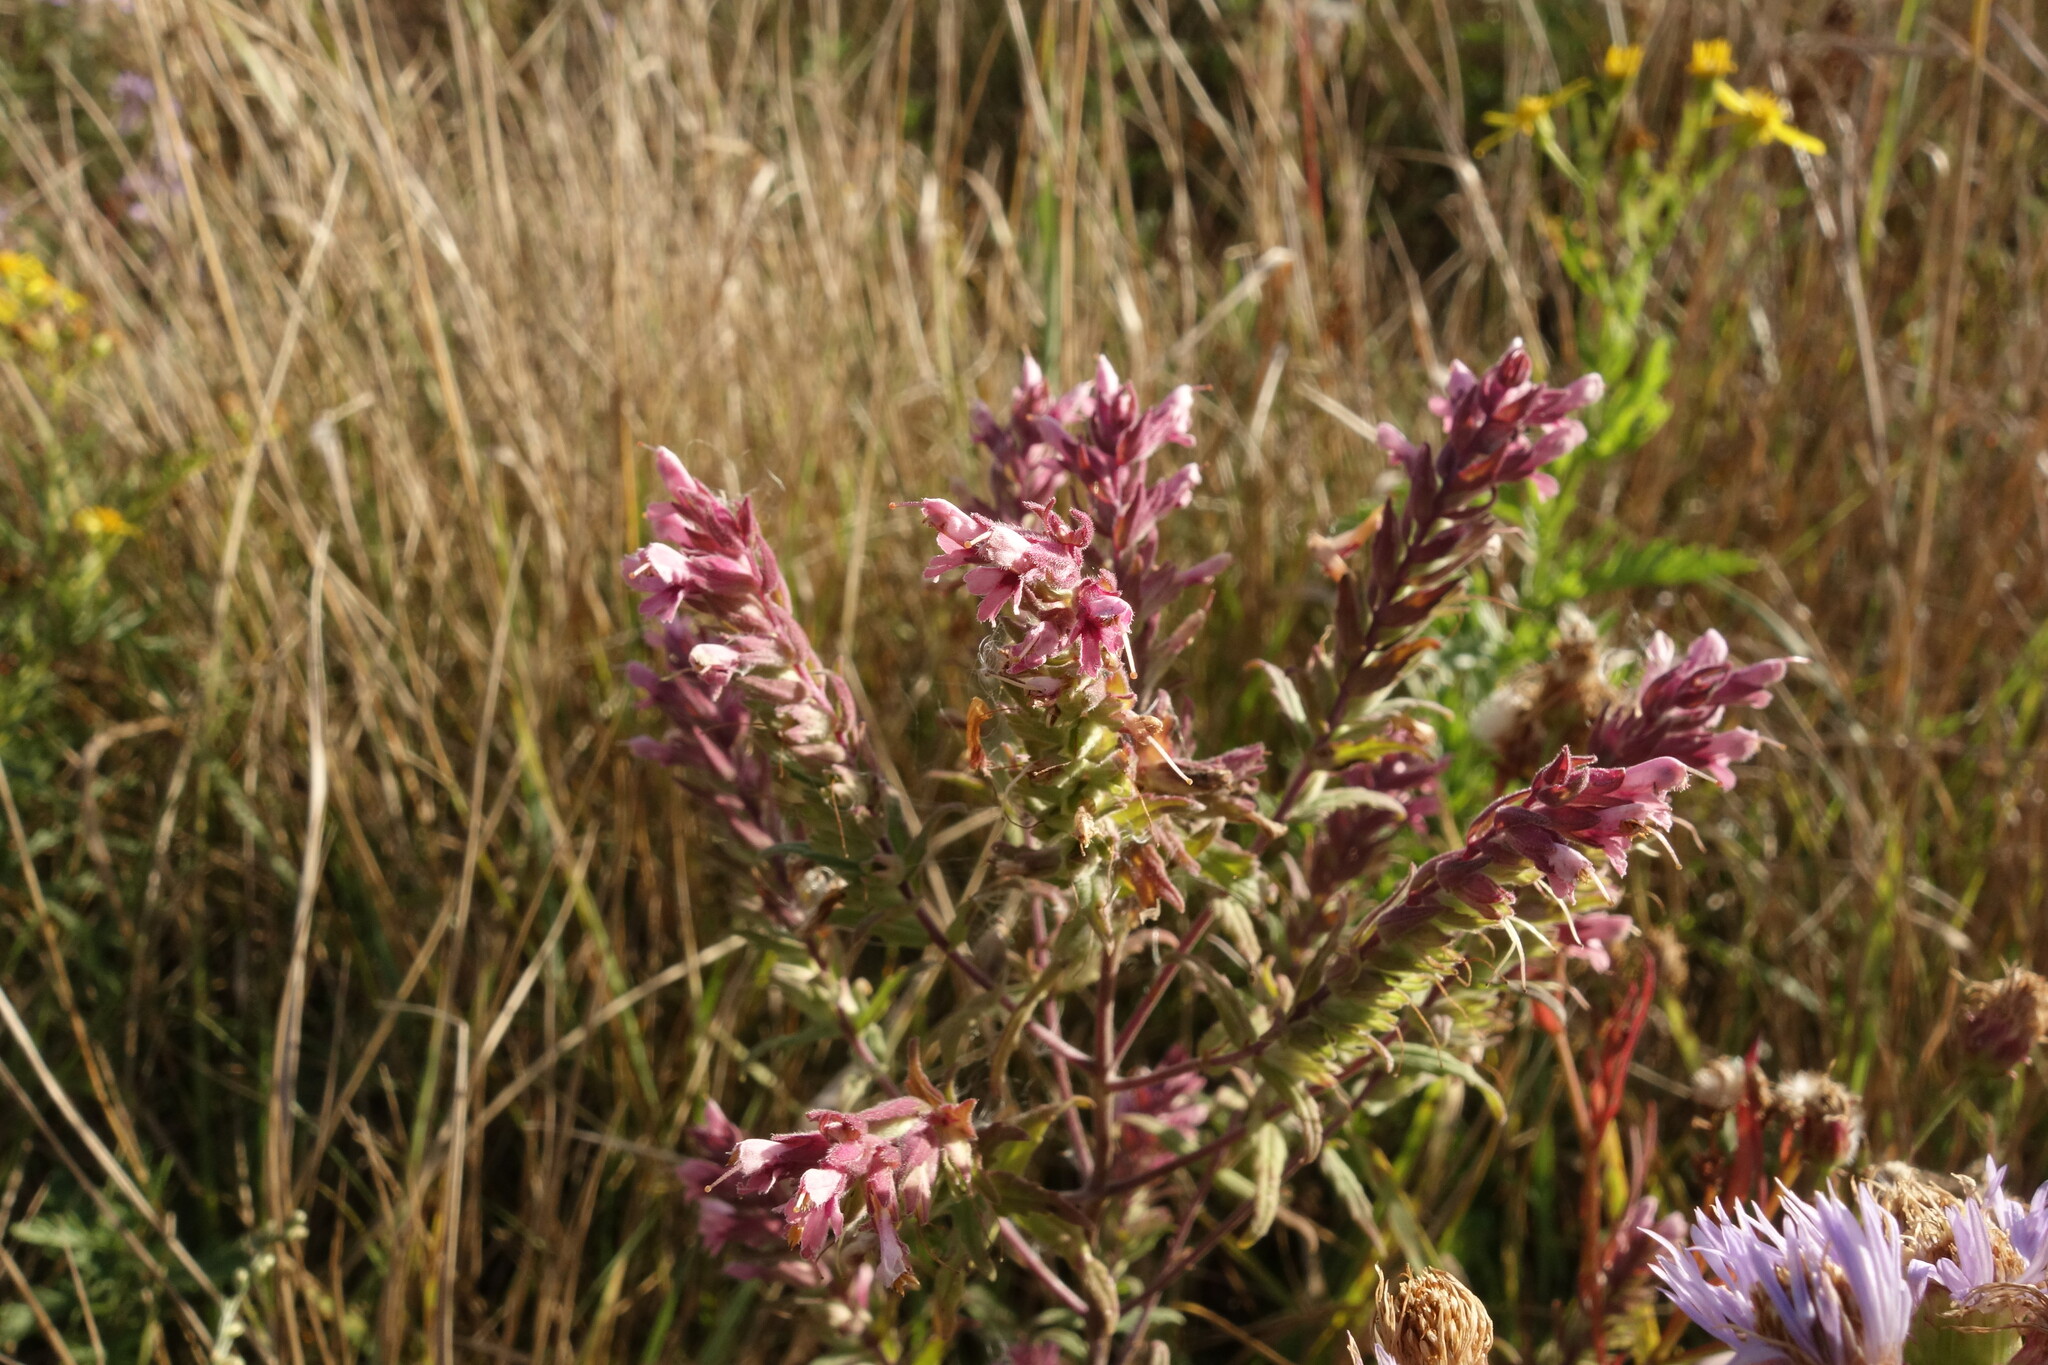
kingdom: Plantae
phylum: Tracheophyta
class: Magnoliopsida
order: Lamiales
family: Orobanchaceae
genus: Odontites
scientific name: Odontites vulgaris
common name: Broomrape
